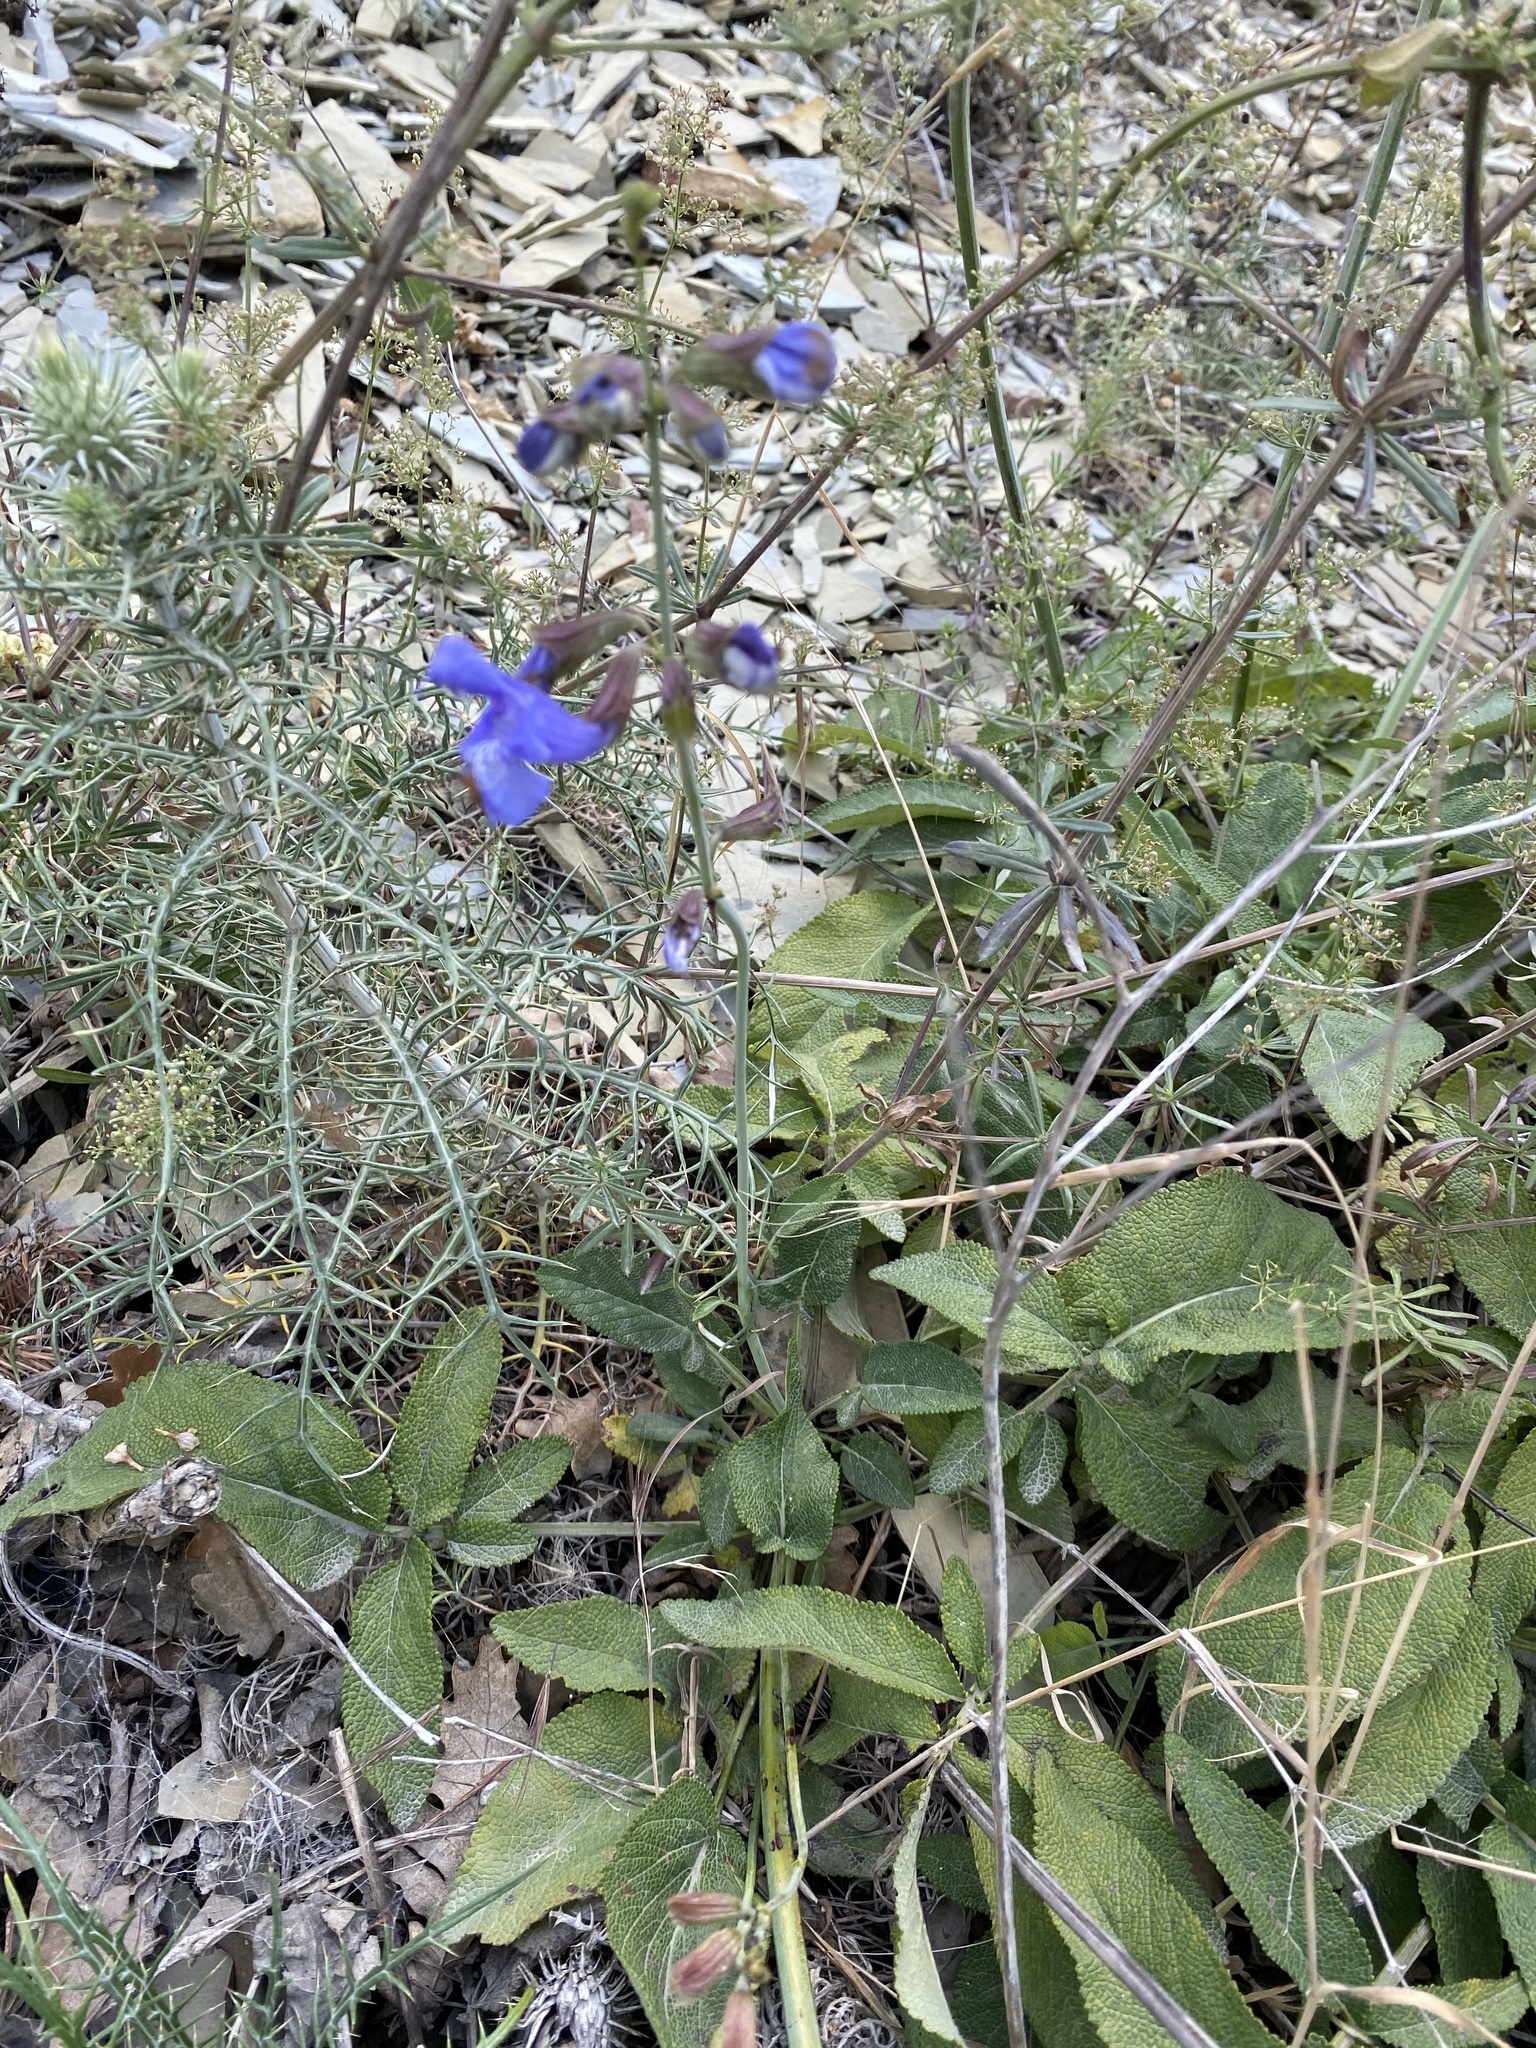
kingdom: Plantae
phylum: Tracheophyta
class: Magnoliopsida
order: Lamiales
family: Lamiaceae
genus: Salvia
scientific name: Salvia ringens
